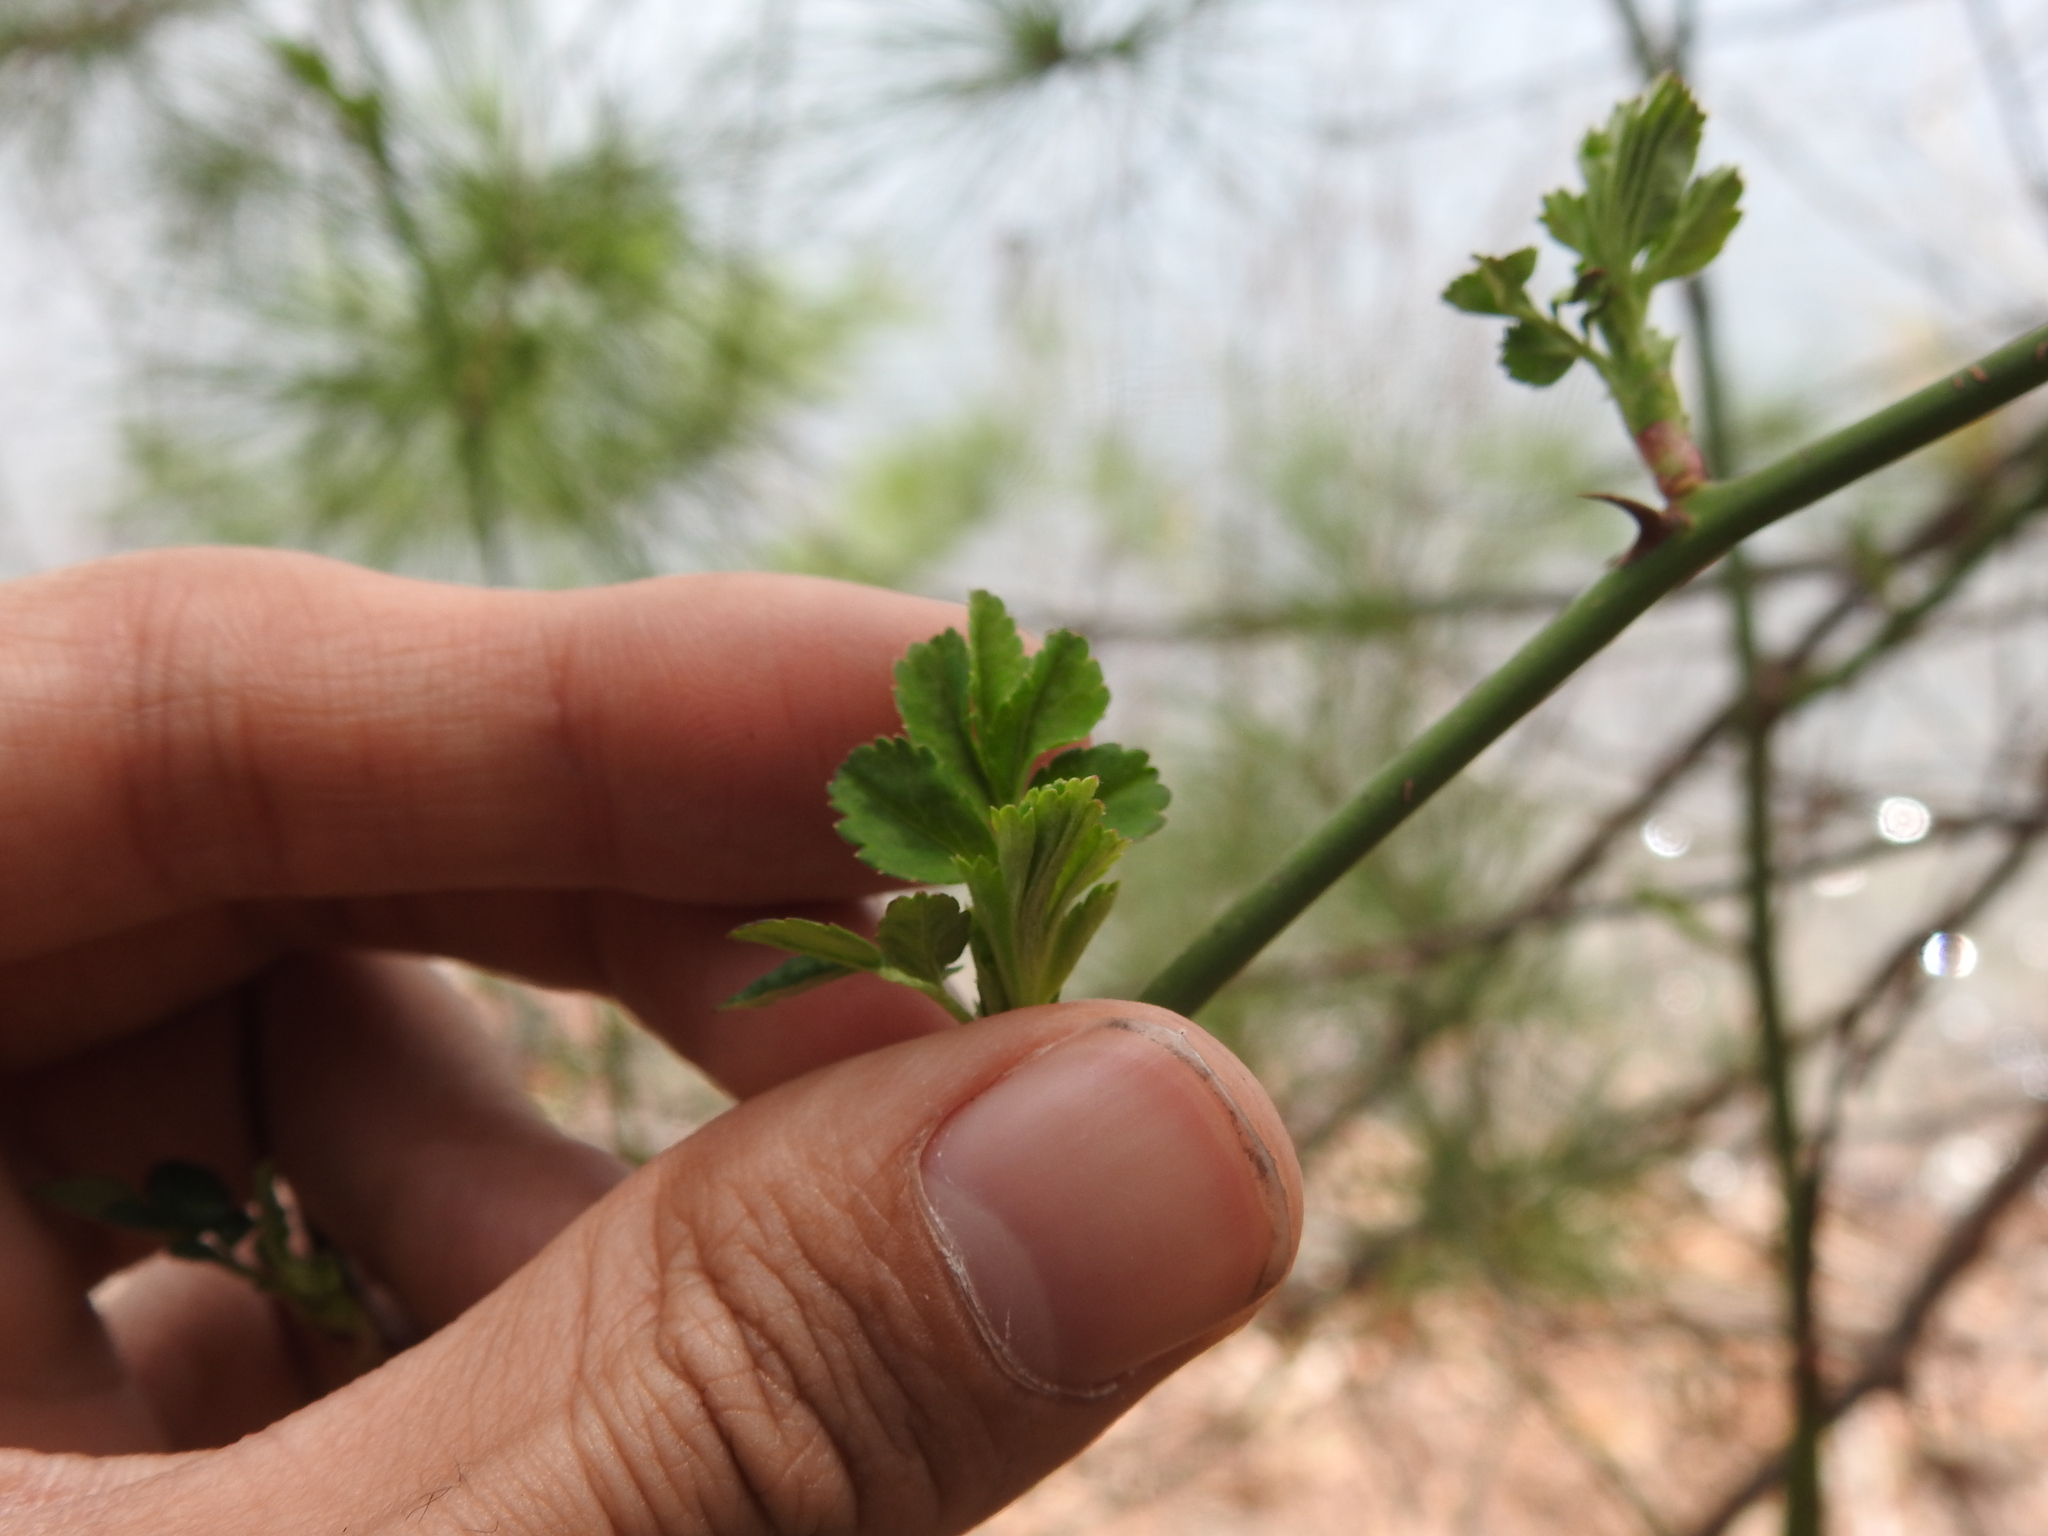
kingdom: Plantae
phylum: Tracheophyta
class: Magnoliopsida
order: Rosales
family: Rosaceae
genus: Rosa
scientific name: Rosa multiflora
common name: Multiflora rose
